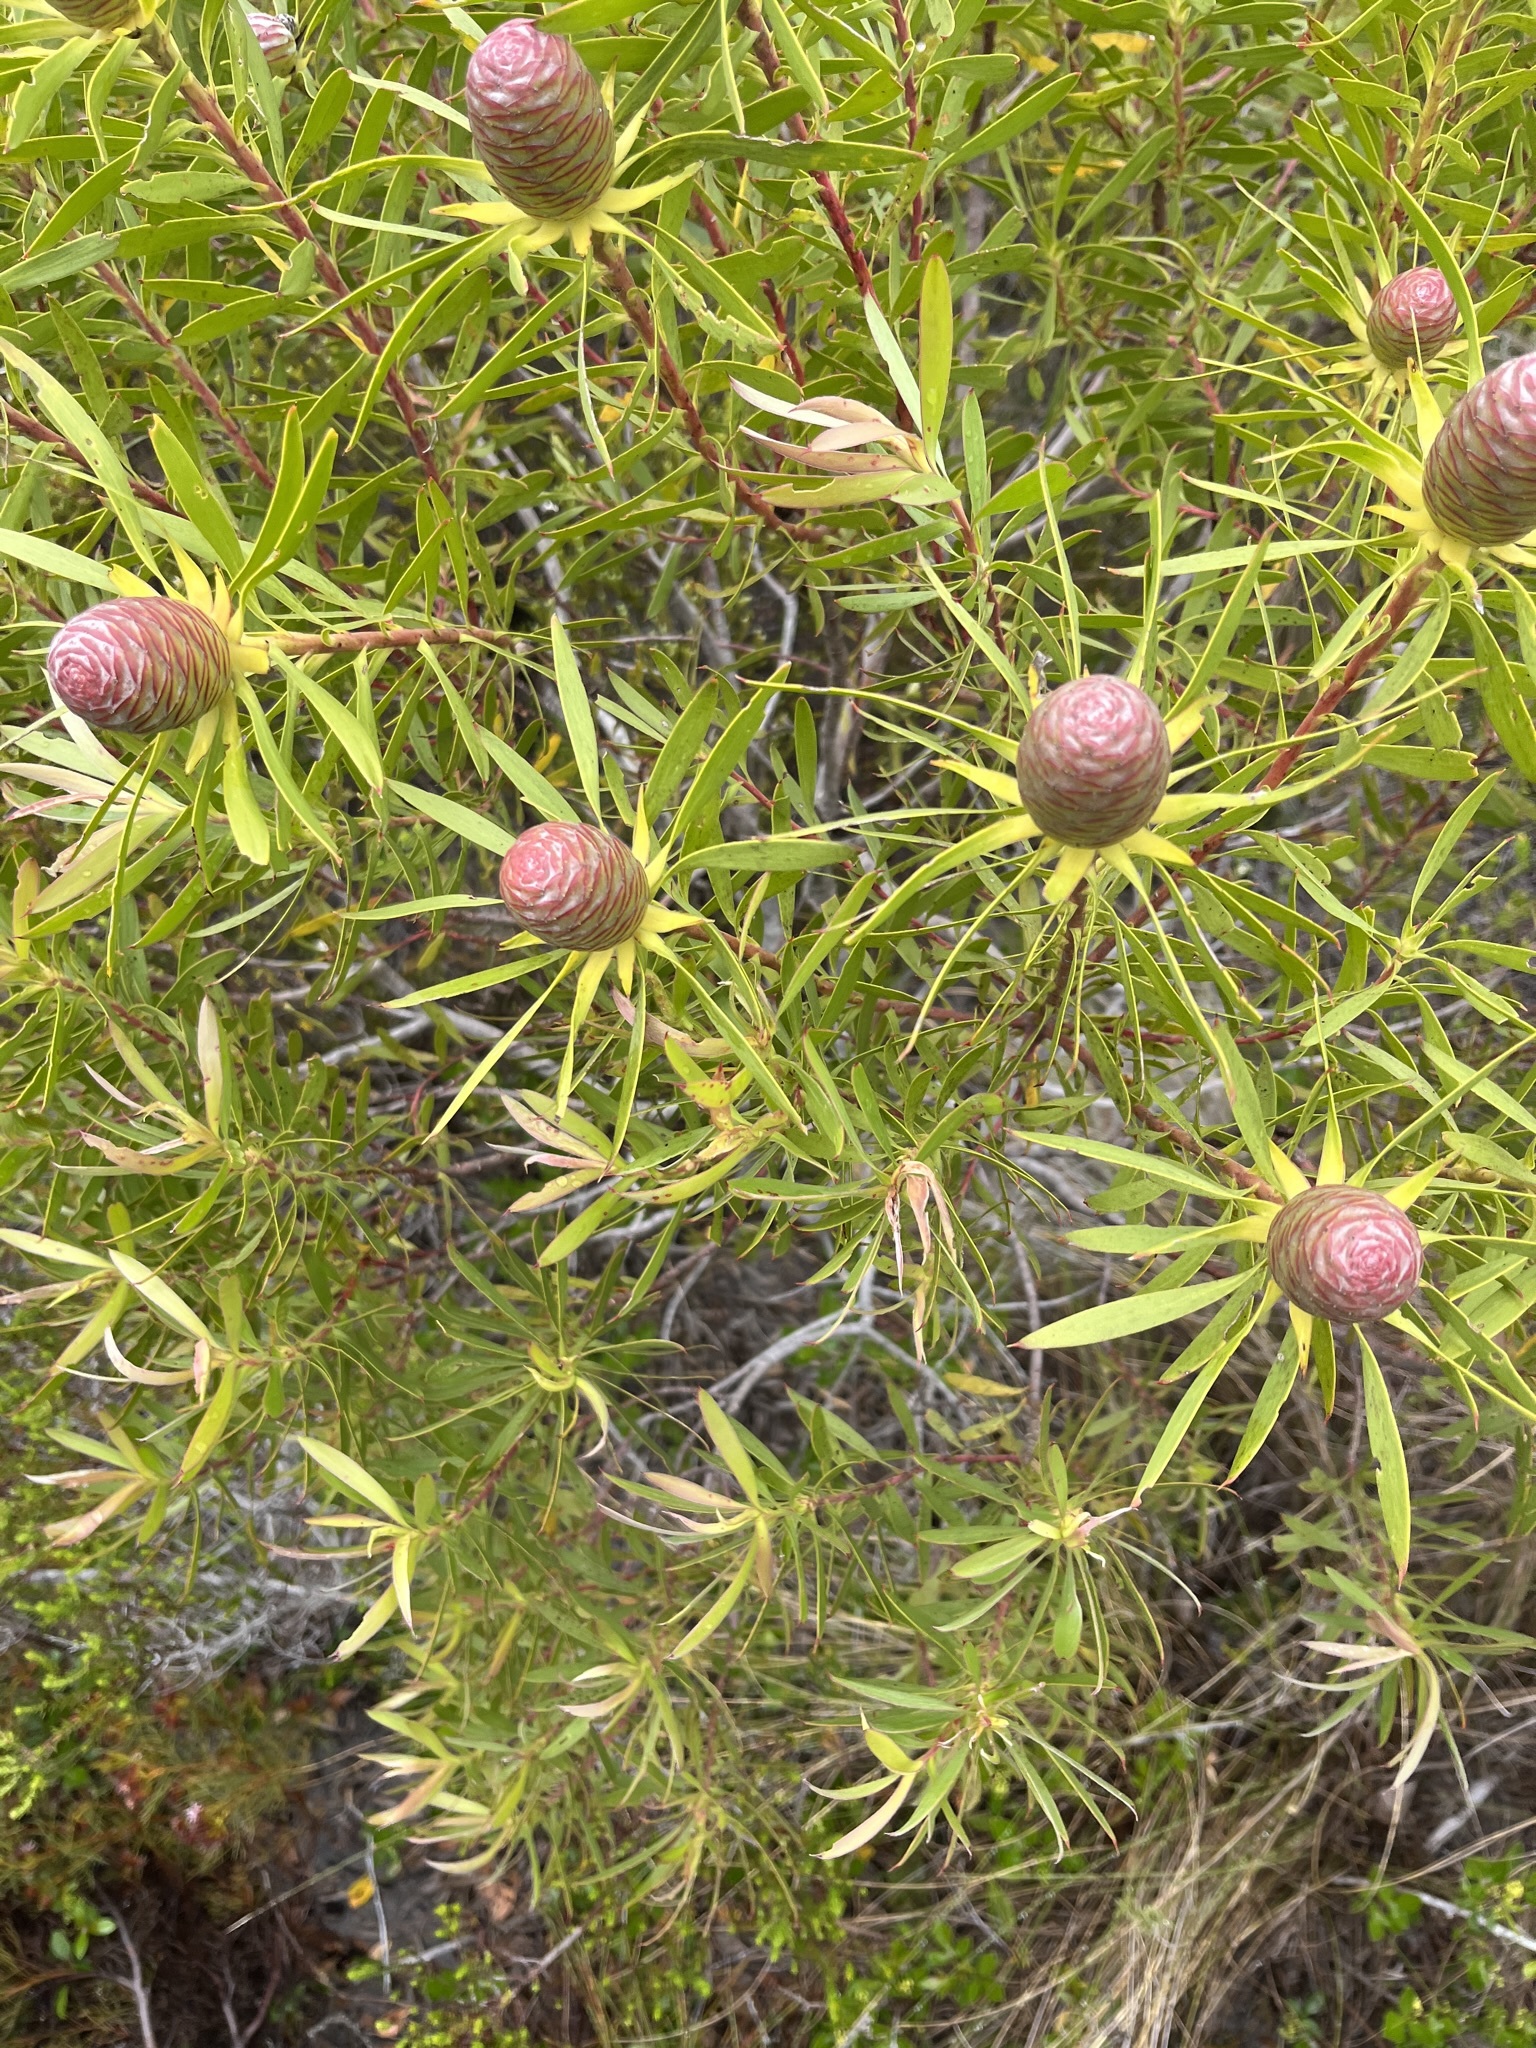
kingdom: Plantae
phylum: Tracheophyta
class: Magnoliopsida
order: Proteales
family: Proteaceae
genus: Leucadendron
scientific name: Leucadendron coniferum
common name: Dune conebush
